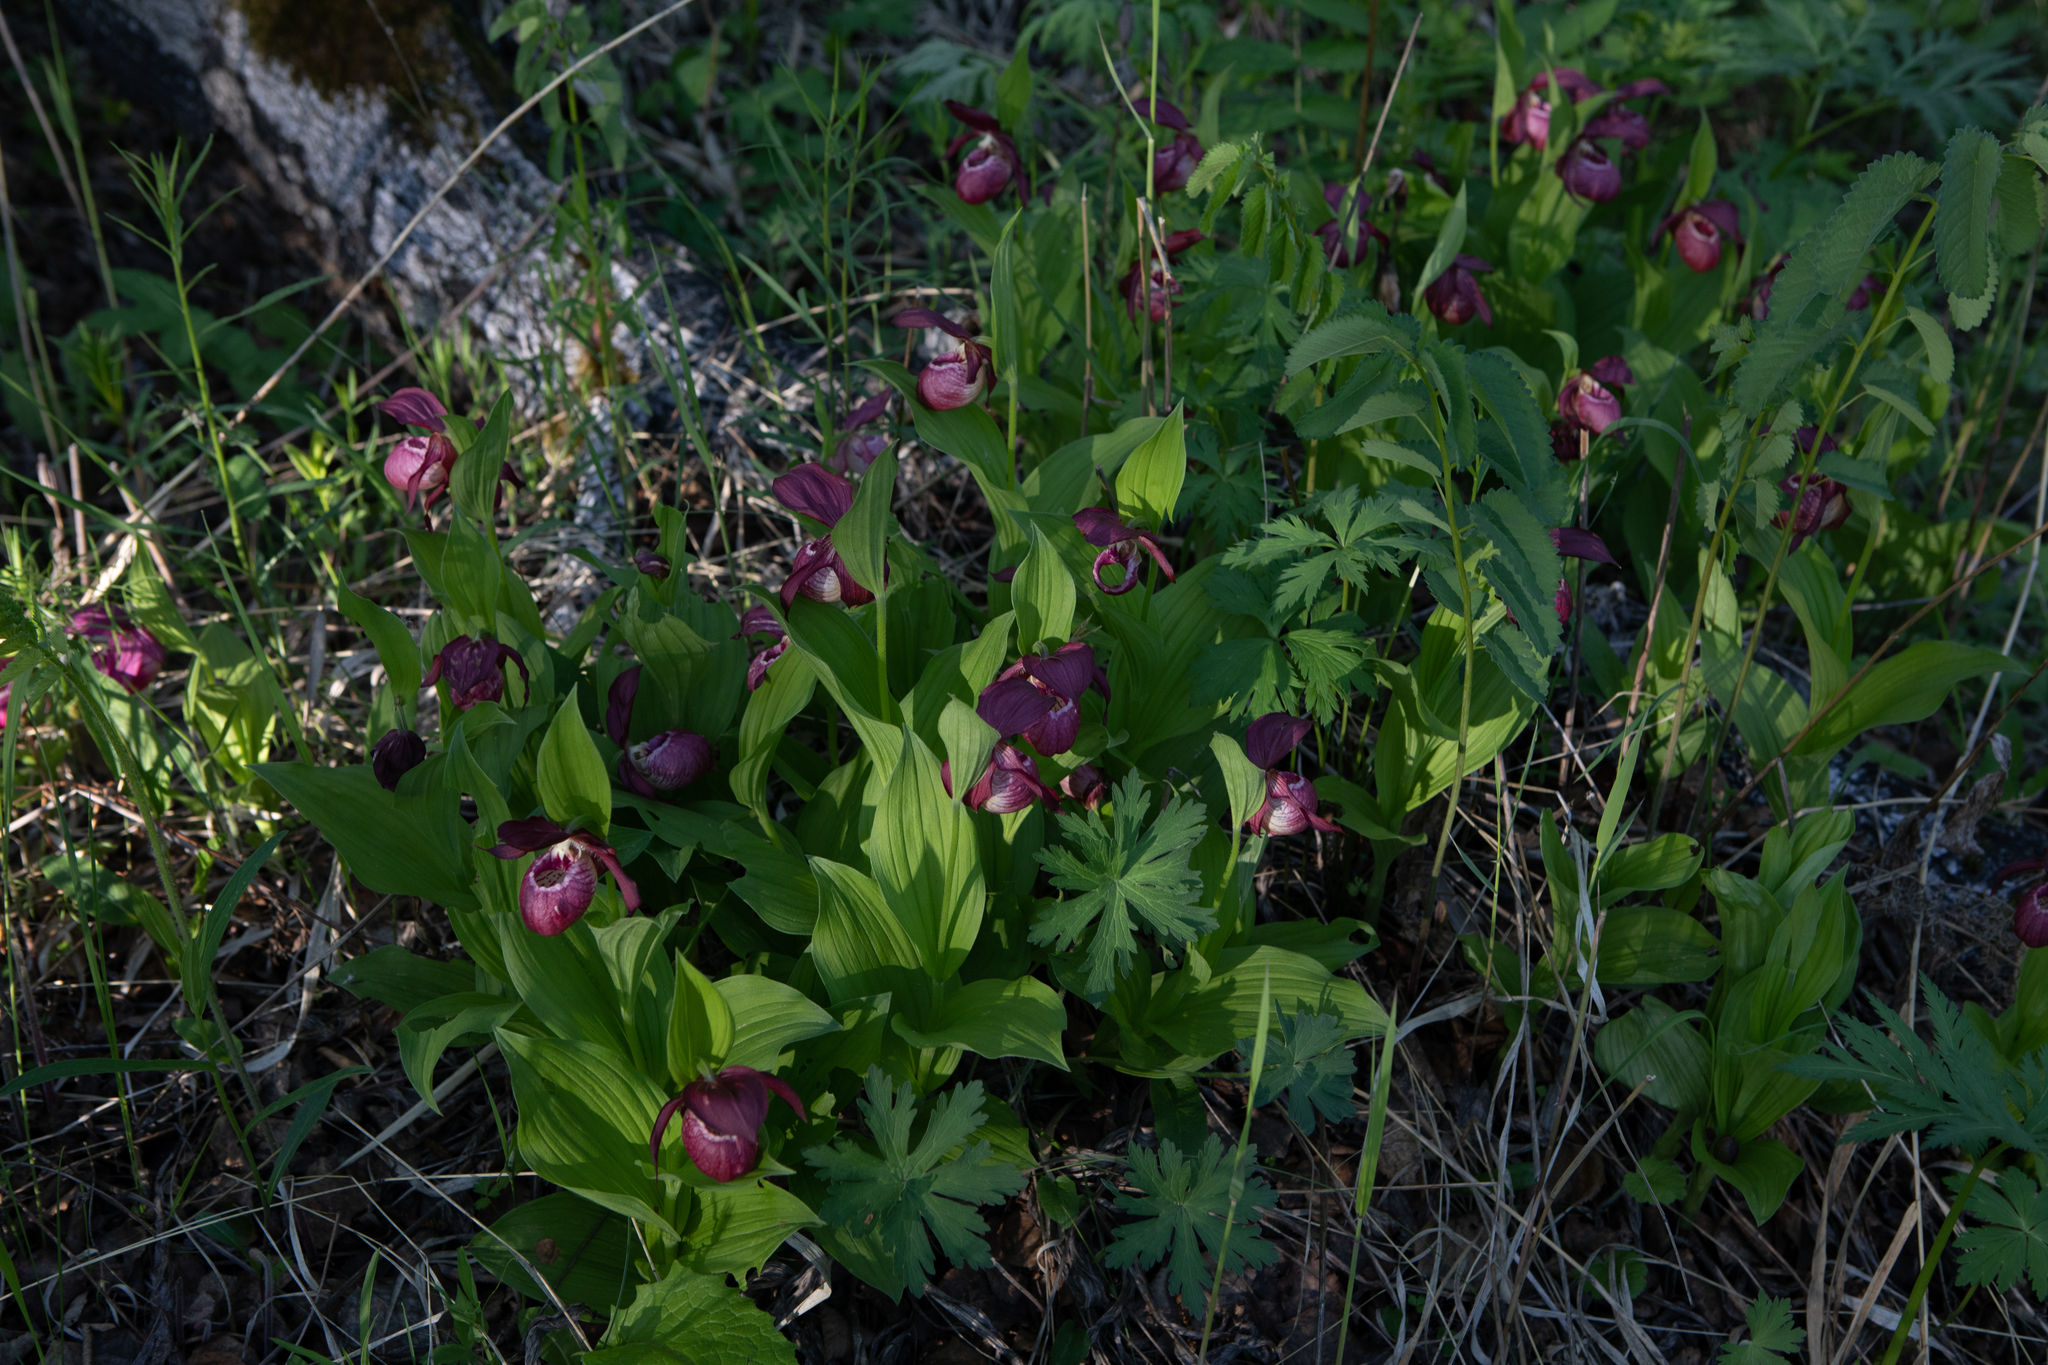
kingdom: Plantae
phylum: Tracheophyta
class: Liliopsida
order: Asparagales
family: Orchidaceae
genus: Cypripedium
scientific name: Cypripedium macranthos
